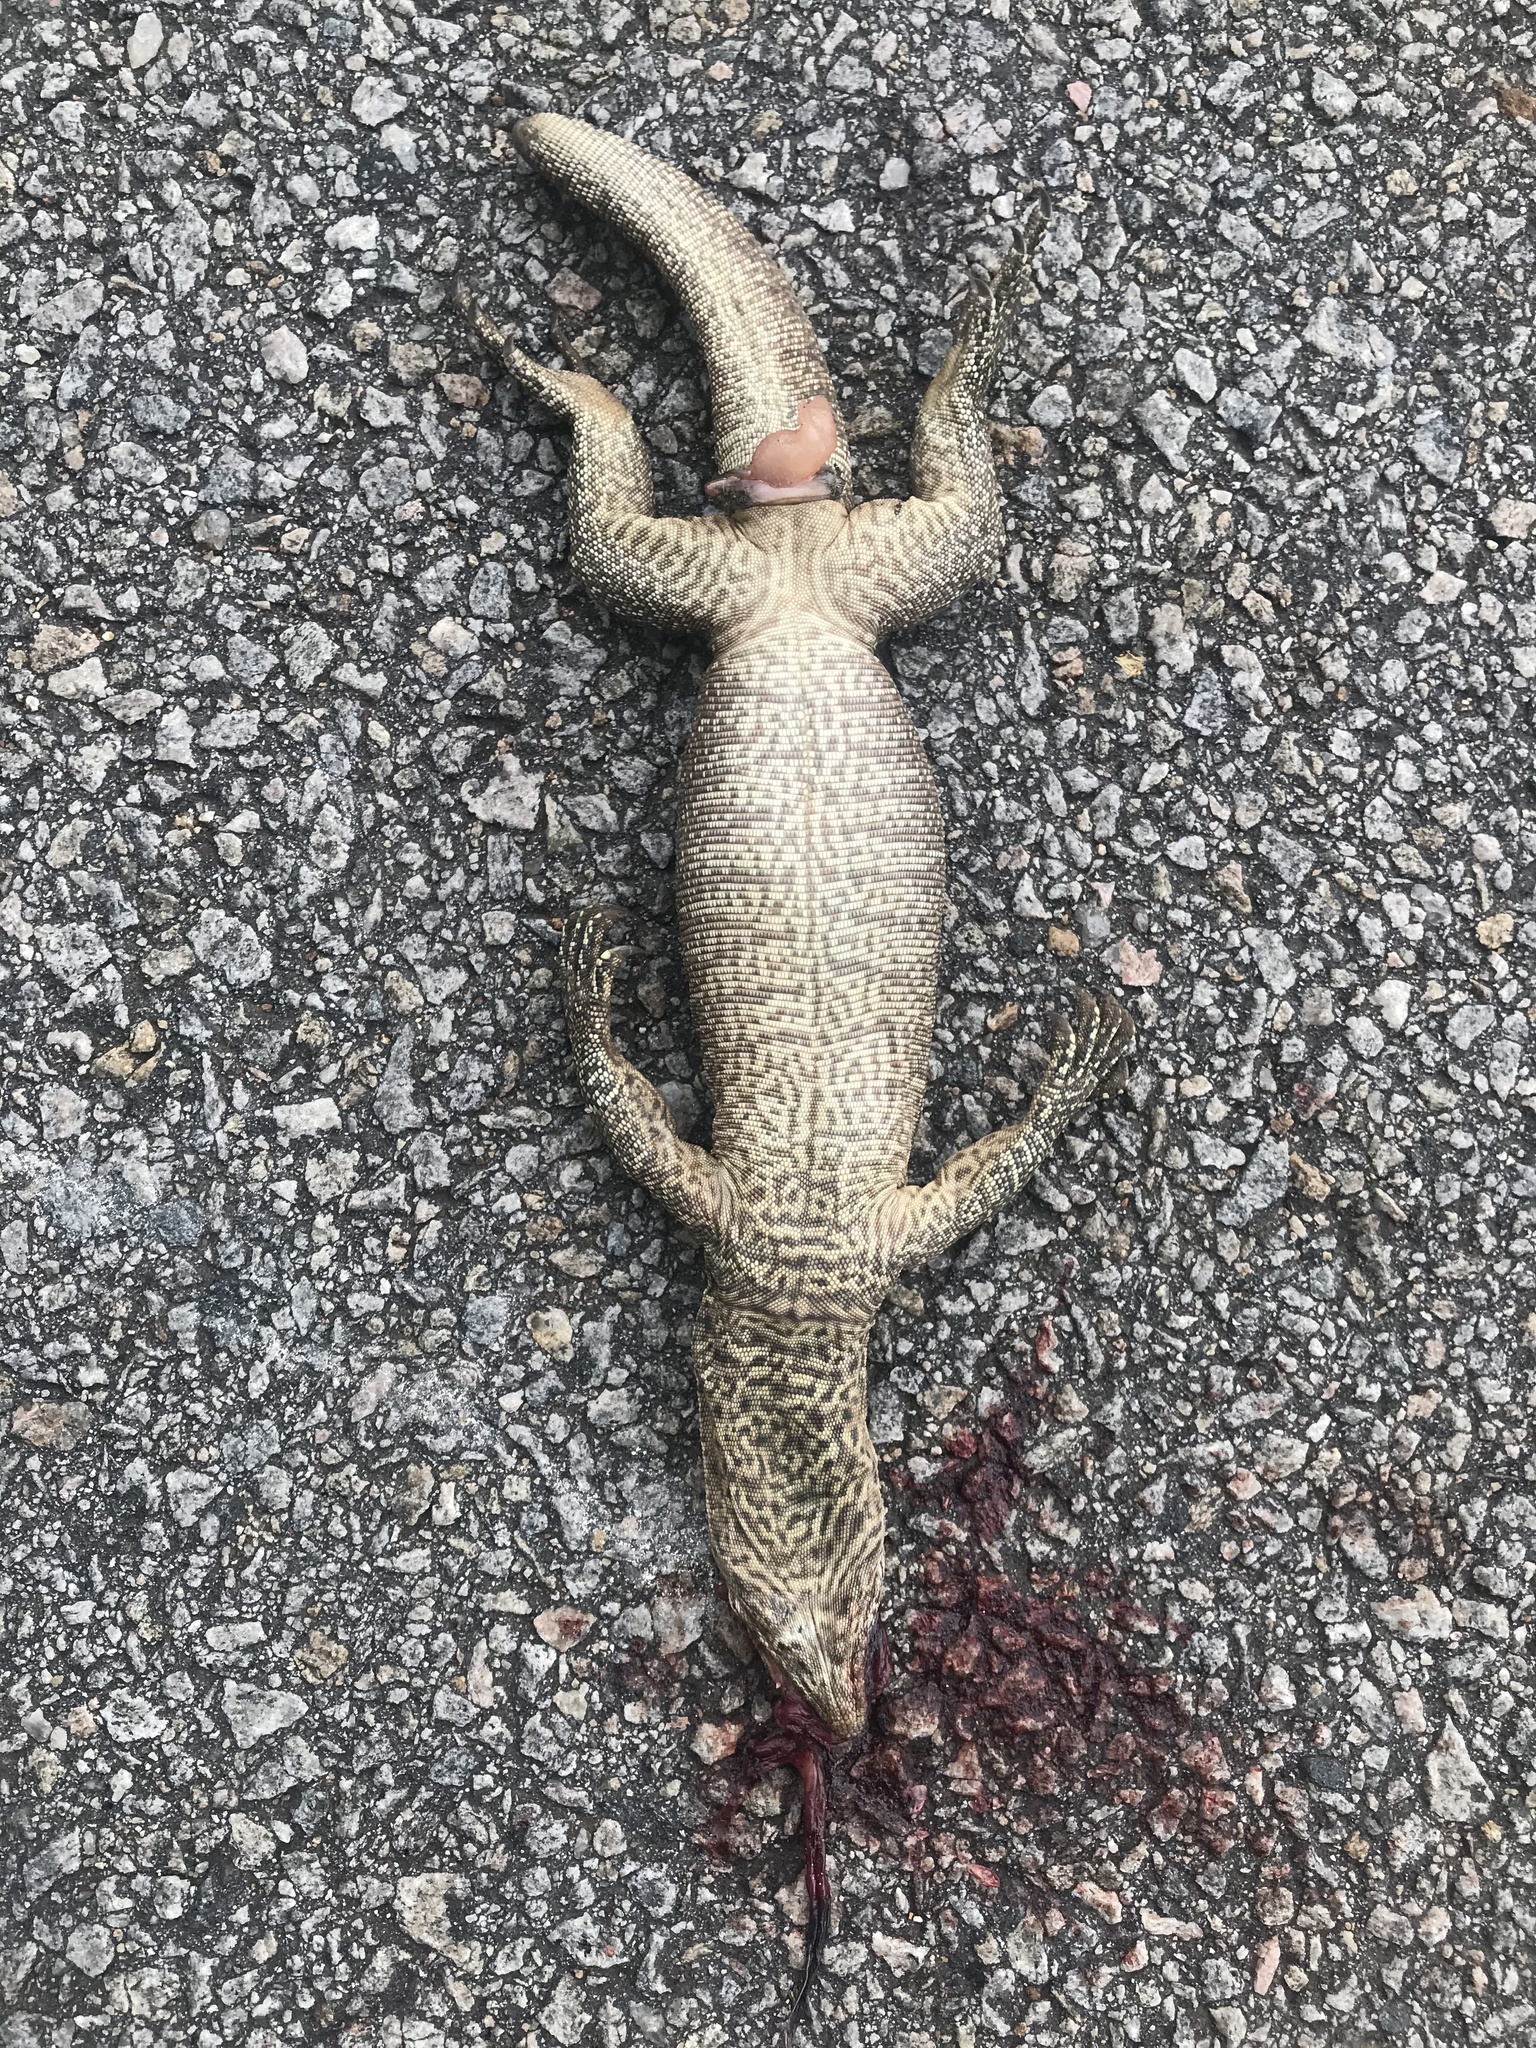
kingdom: Animalia
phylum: Chordata
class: Squamata
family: Varanidae
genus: Varanus
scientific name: Varanus bengalensis
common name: Bengal monitor
